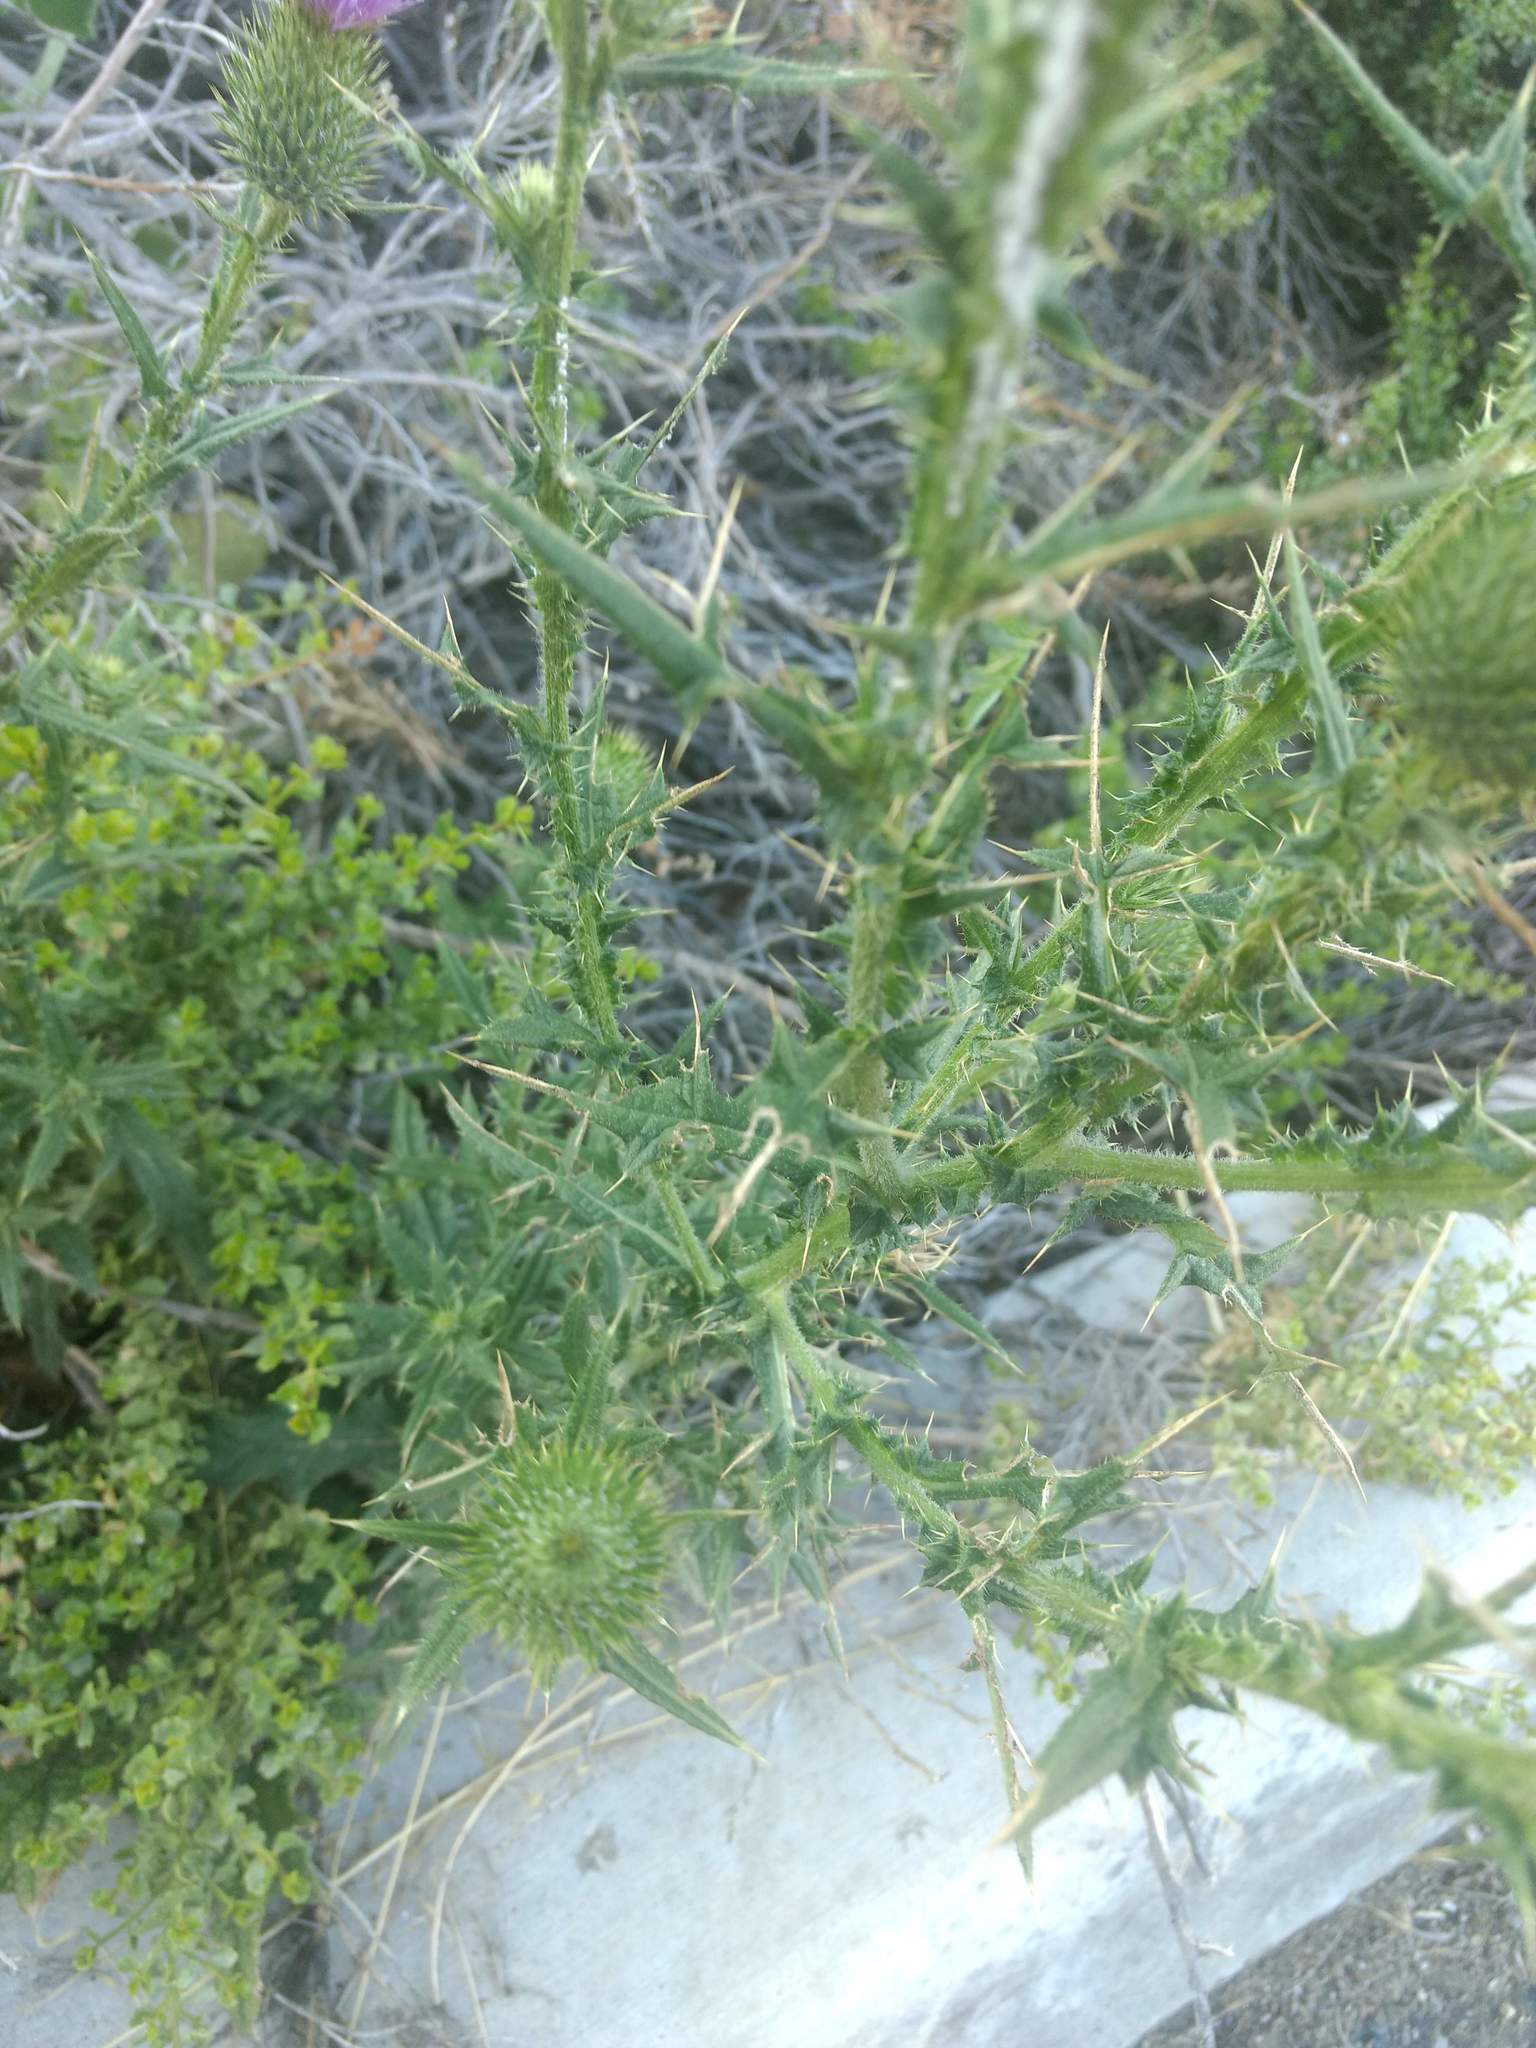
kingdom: Plantae
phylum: Tracheophyta
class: Magnoliopsida
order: Asterales
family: Asteraceae
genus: Cirsium
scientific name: Cirsium vulgare
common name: Bull thistle
